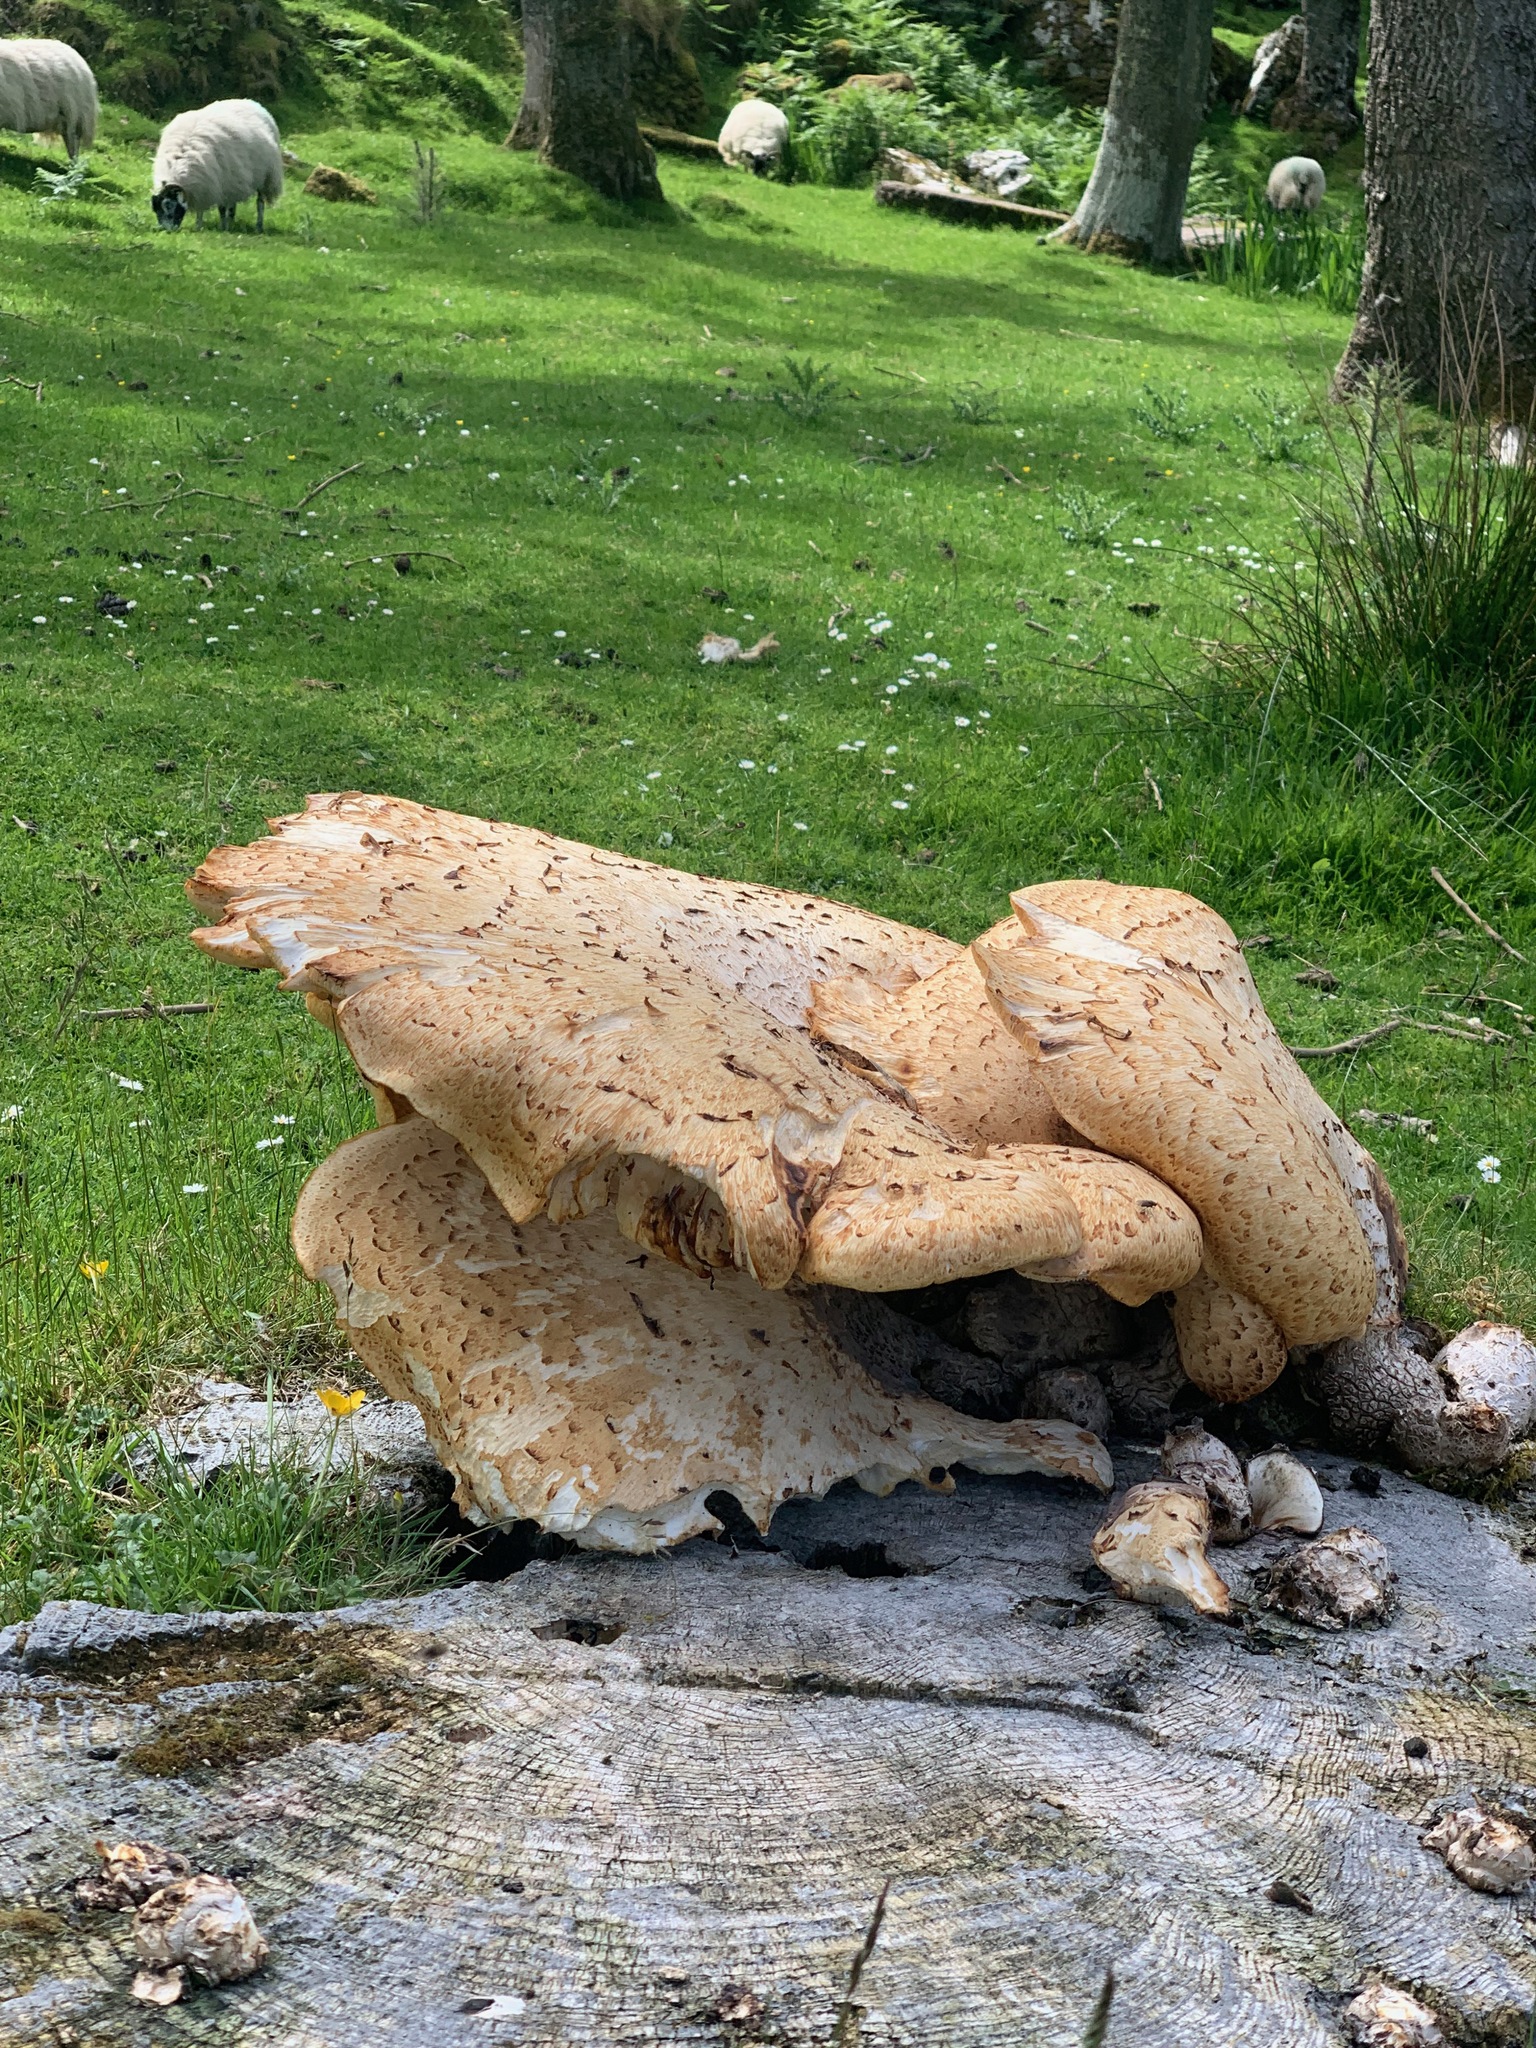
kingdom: Fungi
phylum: Basidiomycota
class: Agaricomycetes
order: Polyporales
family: Polyporaceae
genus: Cerioporus
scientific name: Cerioporus squamosus
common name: Dryad's saddle
